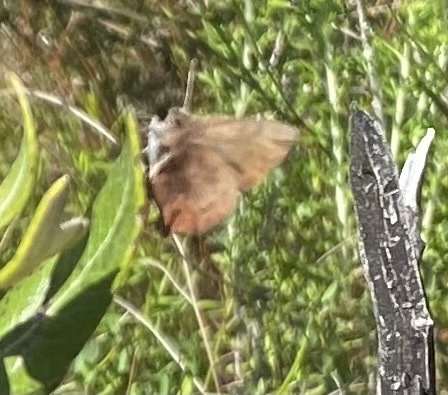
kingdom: Animalia
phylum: Arthropoda
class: Insecta
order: Lepidoptera
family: Lycaenidae
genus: Incisalia
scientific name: Incisalia irioides
